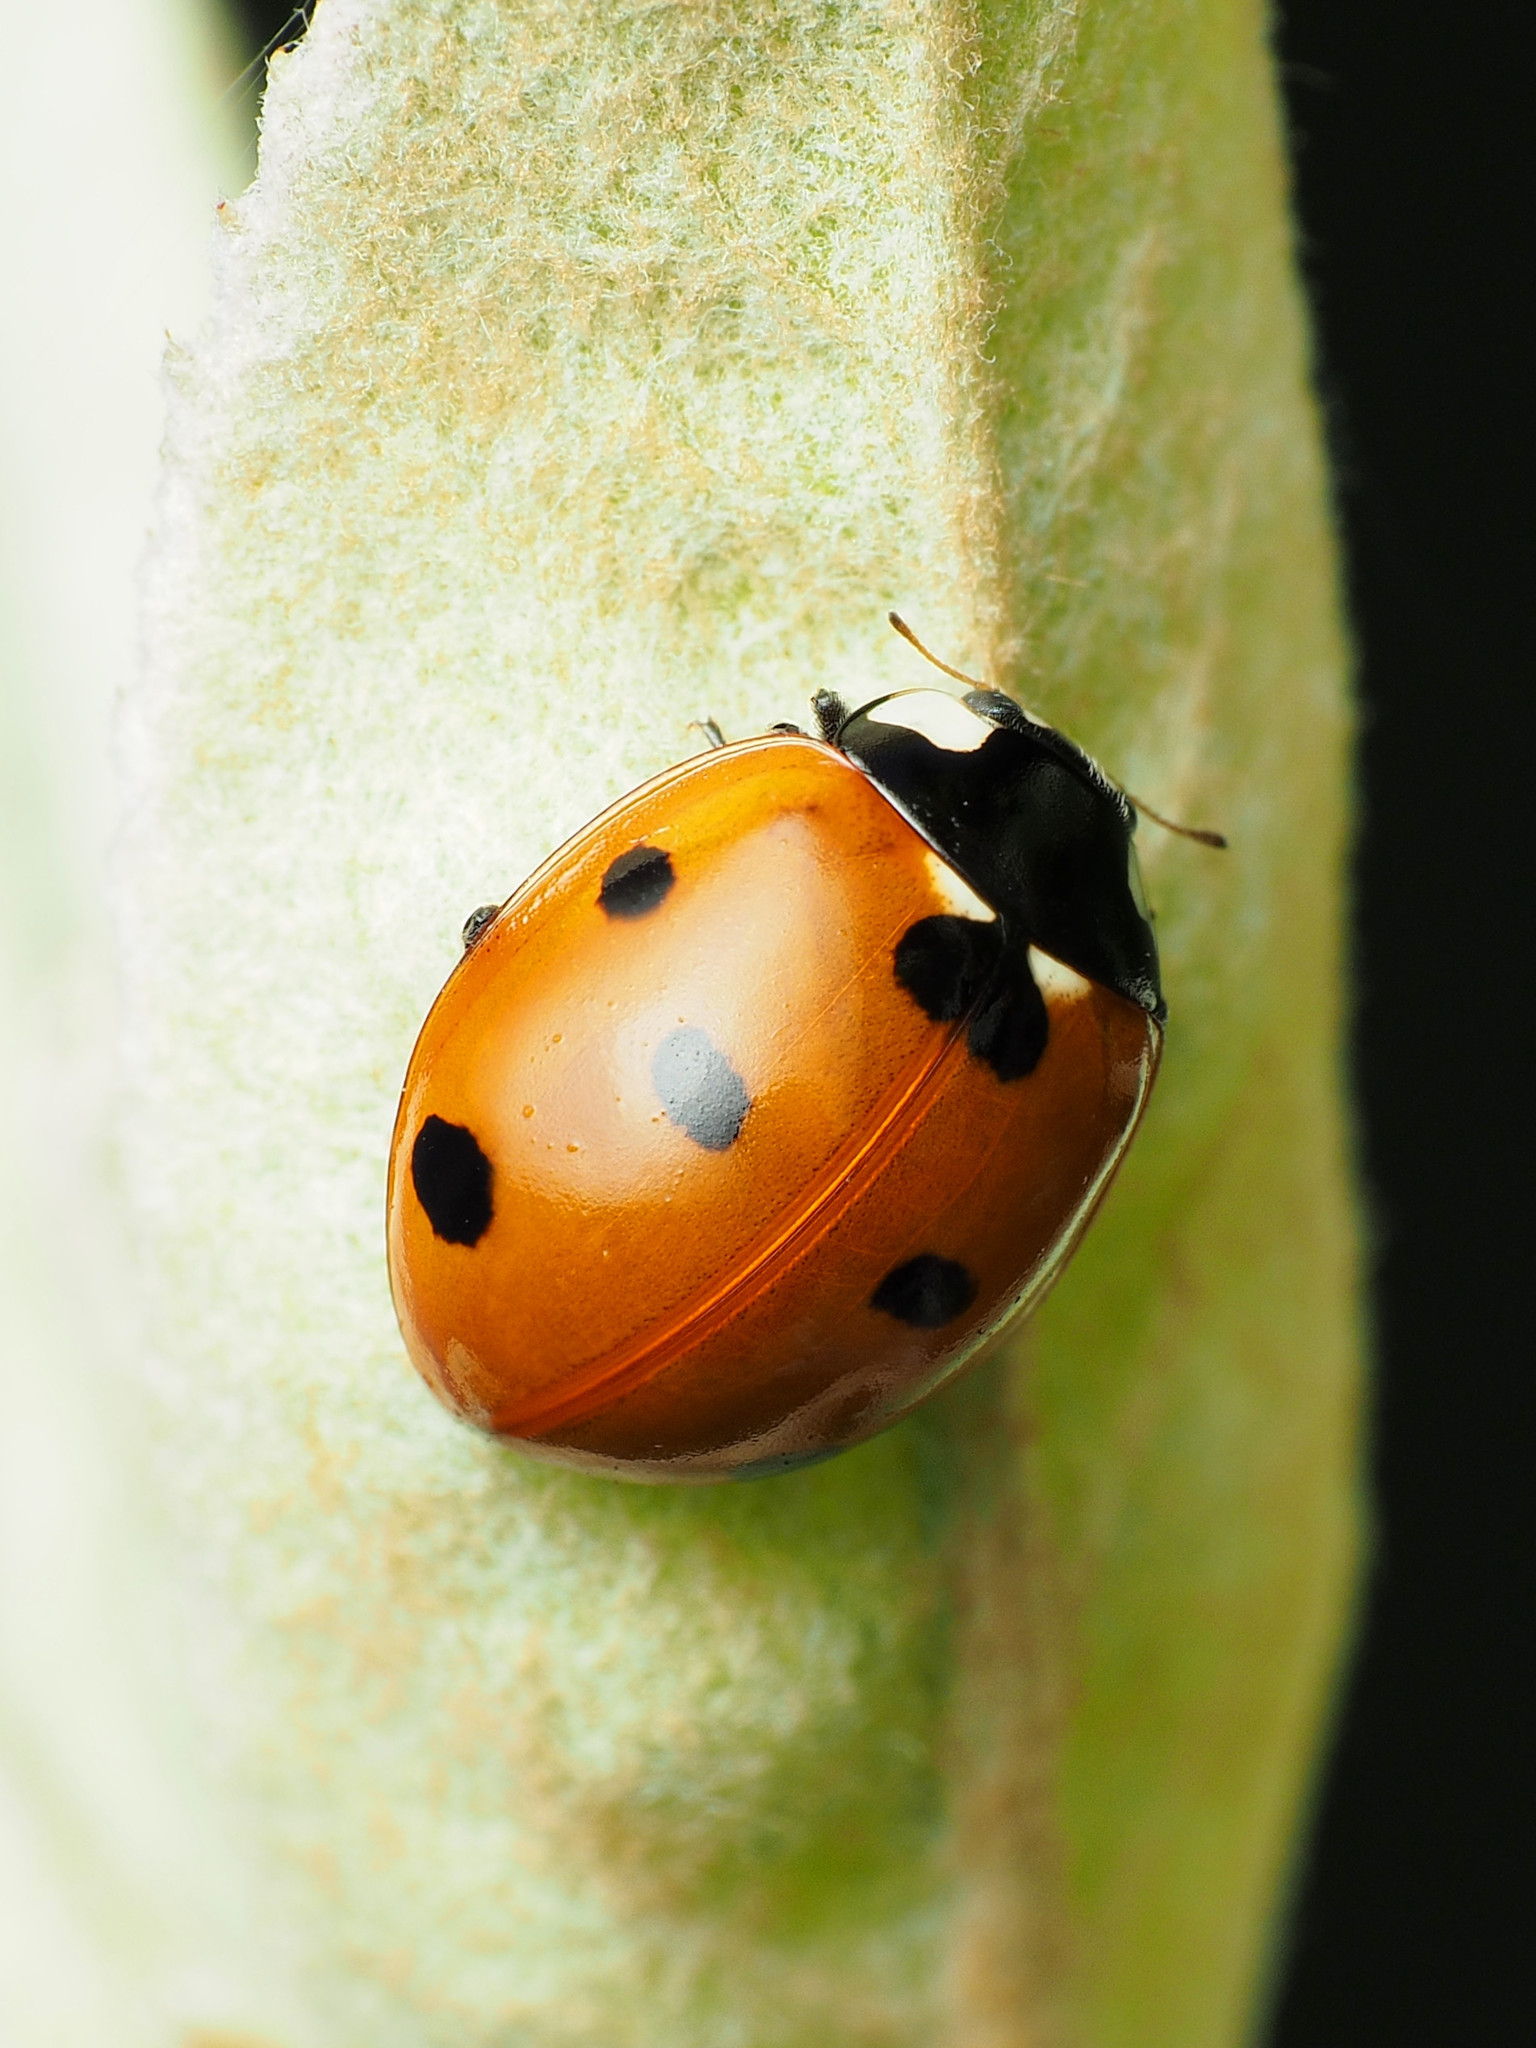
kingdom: Animalia
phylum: Arthropoda
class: Insecta
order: Coleoptera
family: Coccinellidae
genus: Coccinella
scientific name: Coccinella septempunctata
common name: Sevenspotted lady beetle
